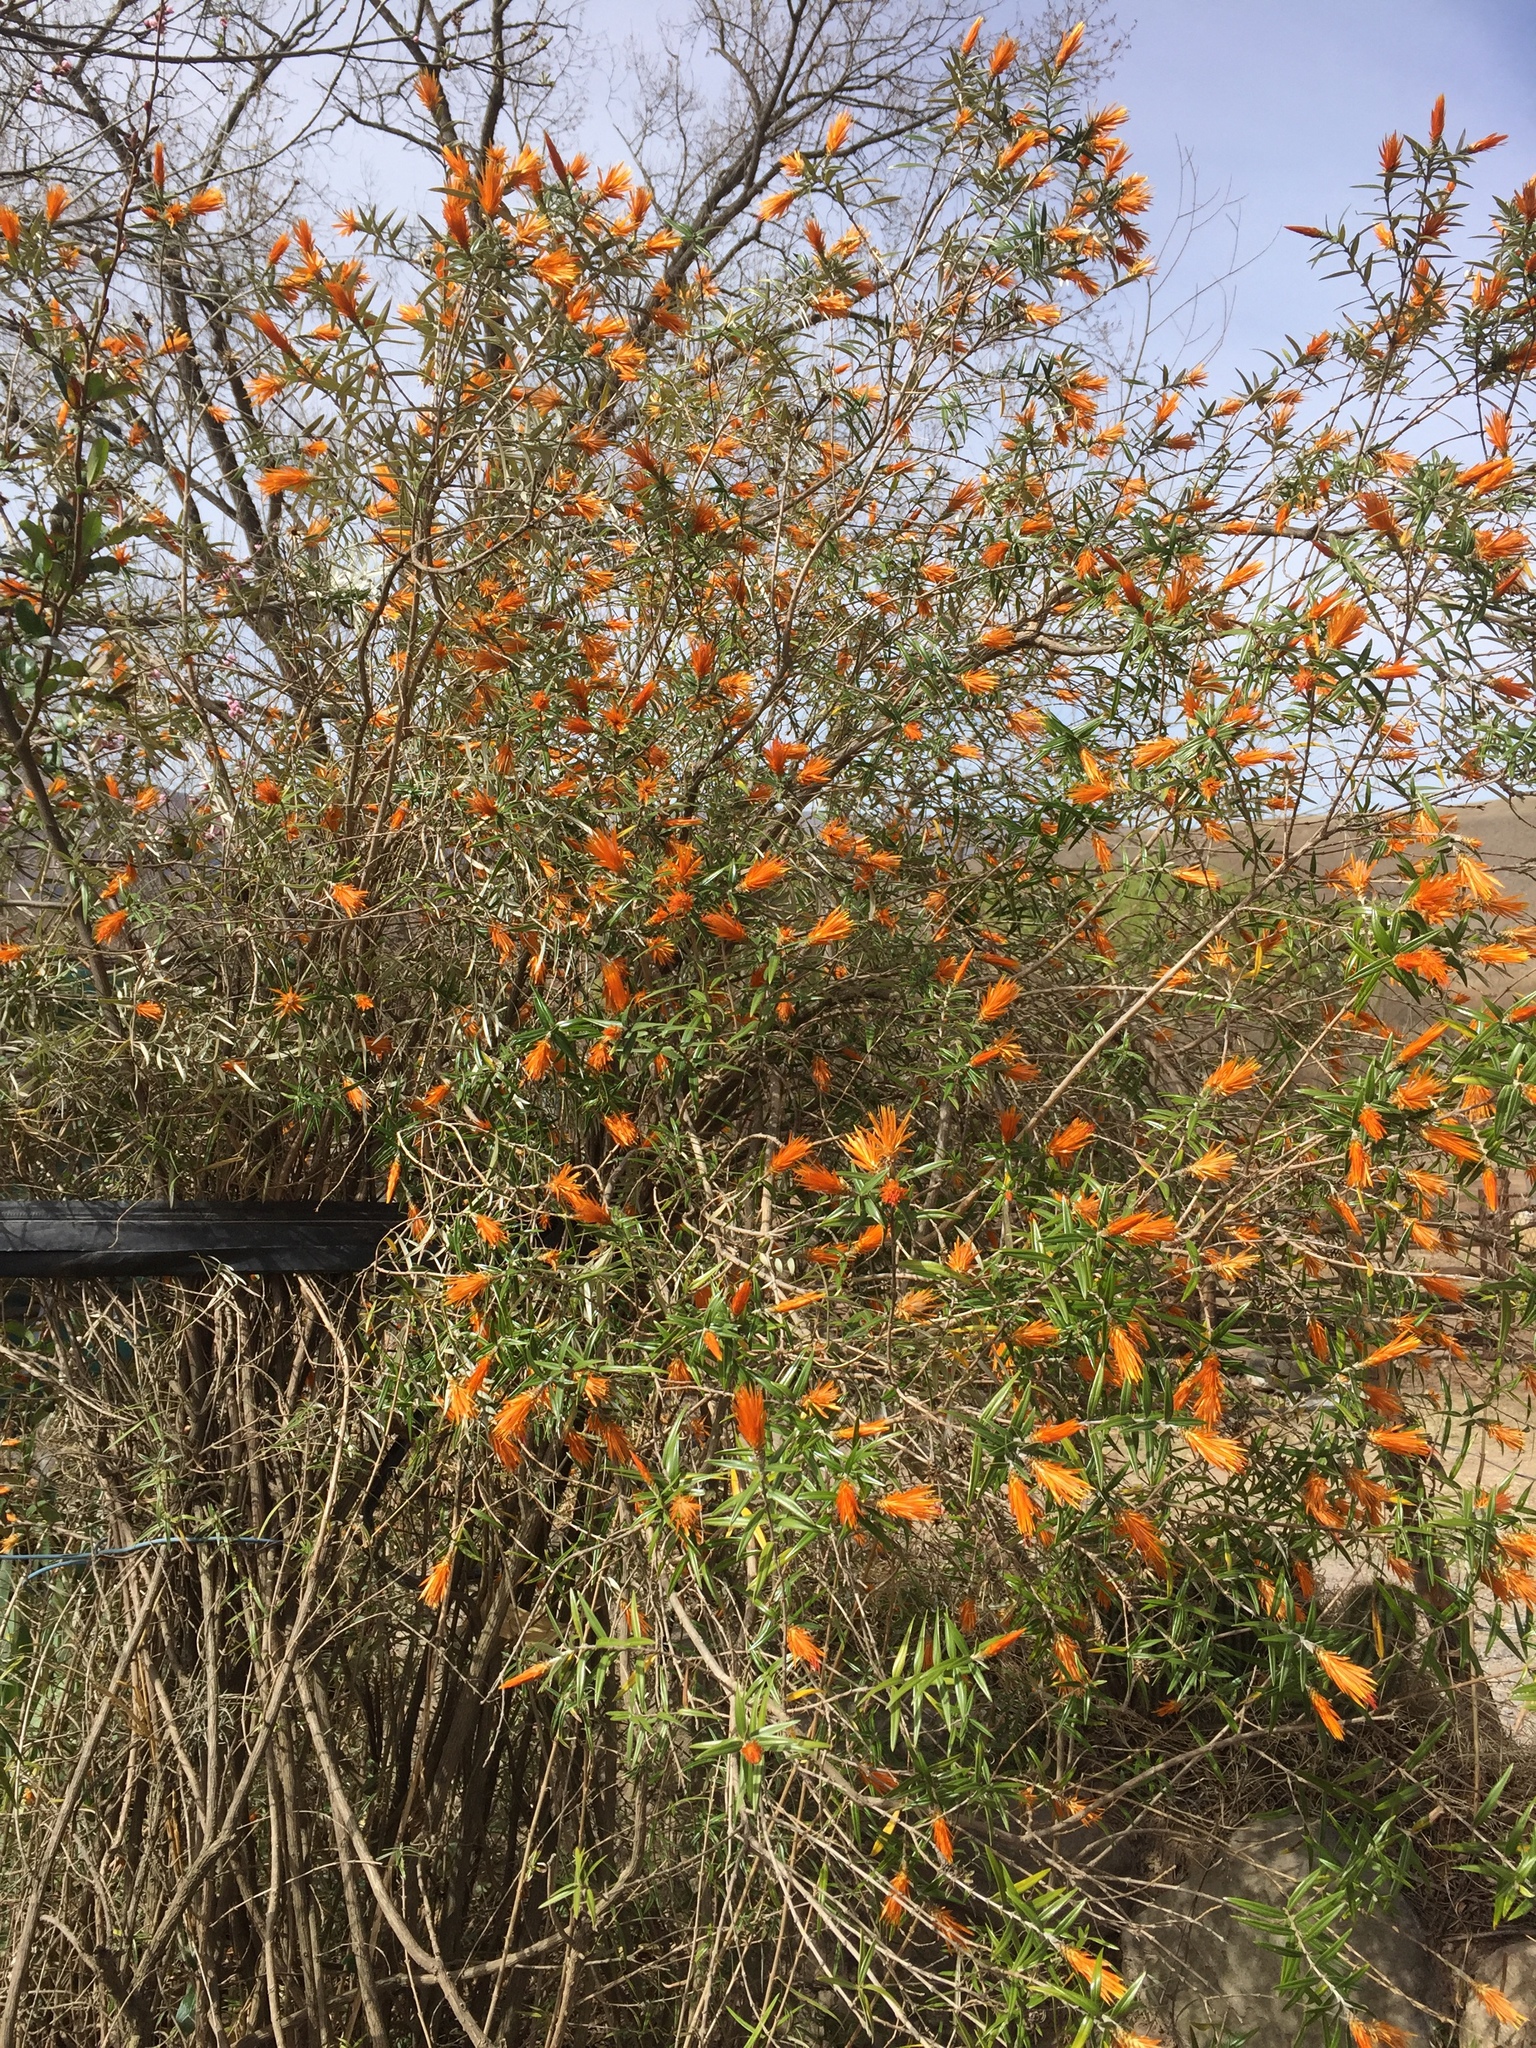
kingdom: Plantae
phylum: Tracheophyta
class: Magnoliopsida
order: Asterales
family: Asteraceae
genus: Chuquiraga
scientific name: Chuquiraga calchaquina
